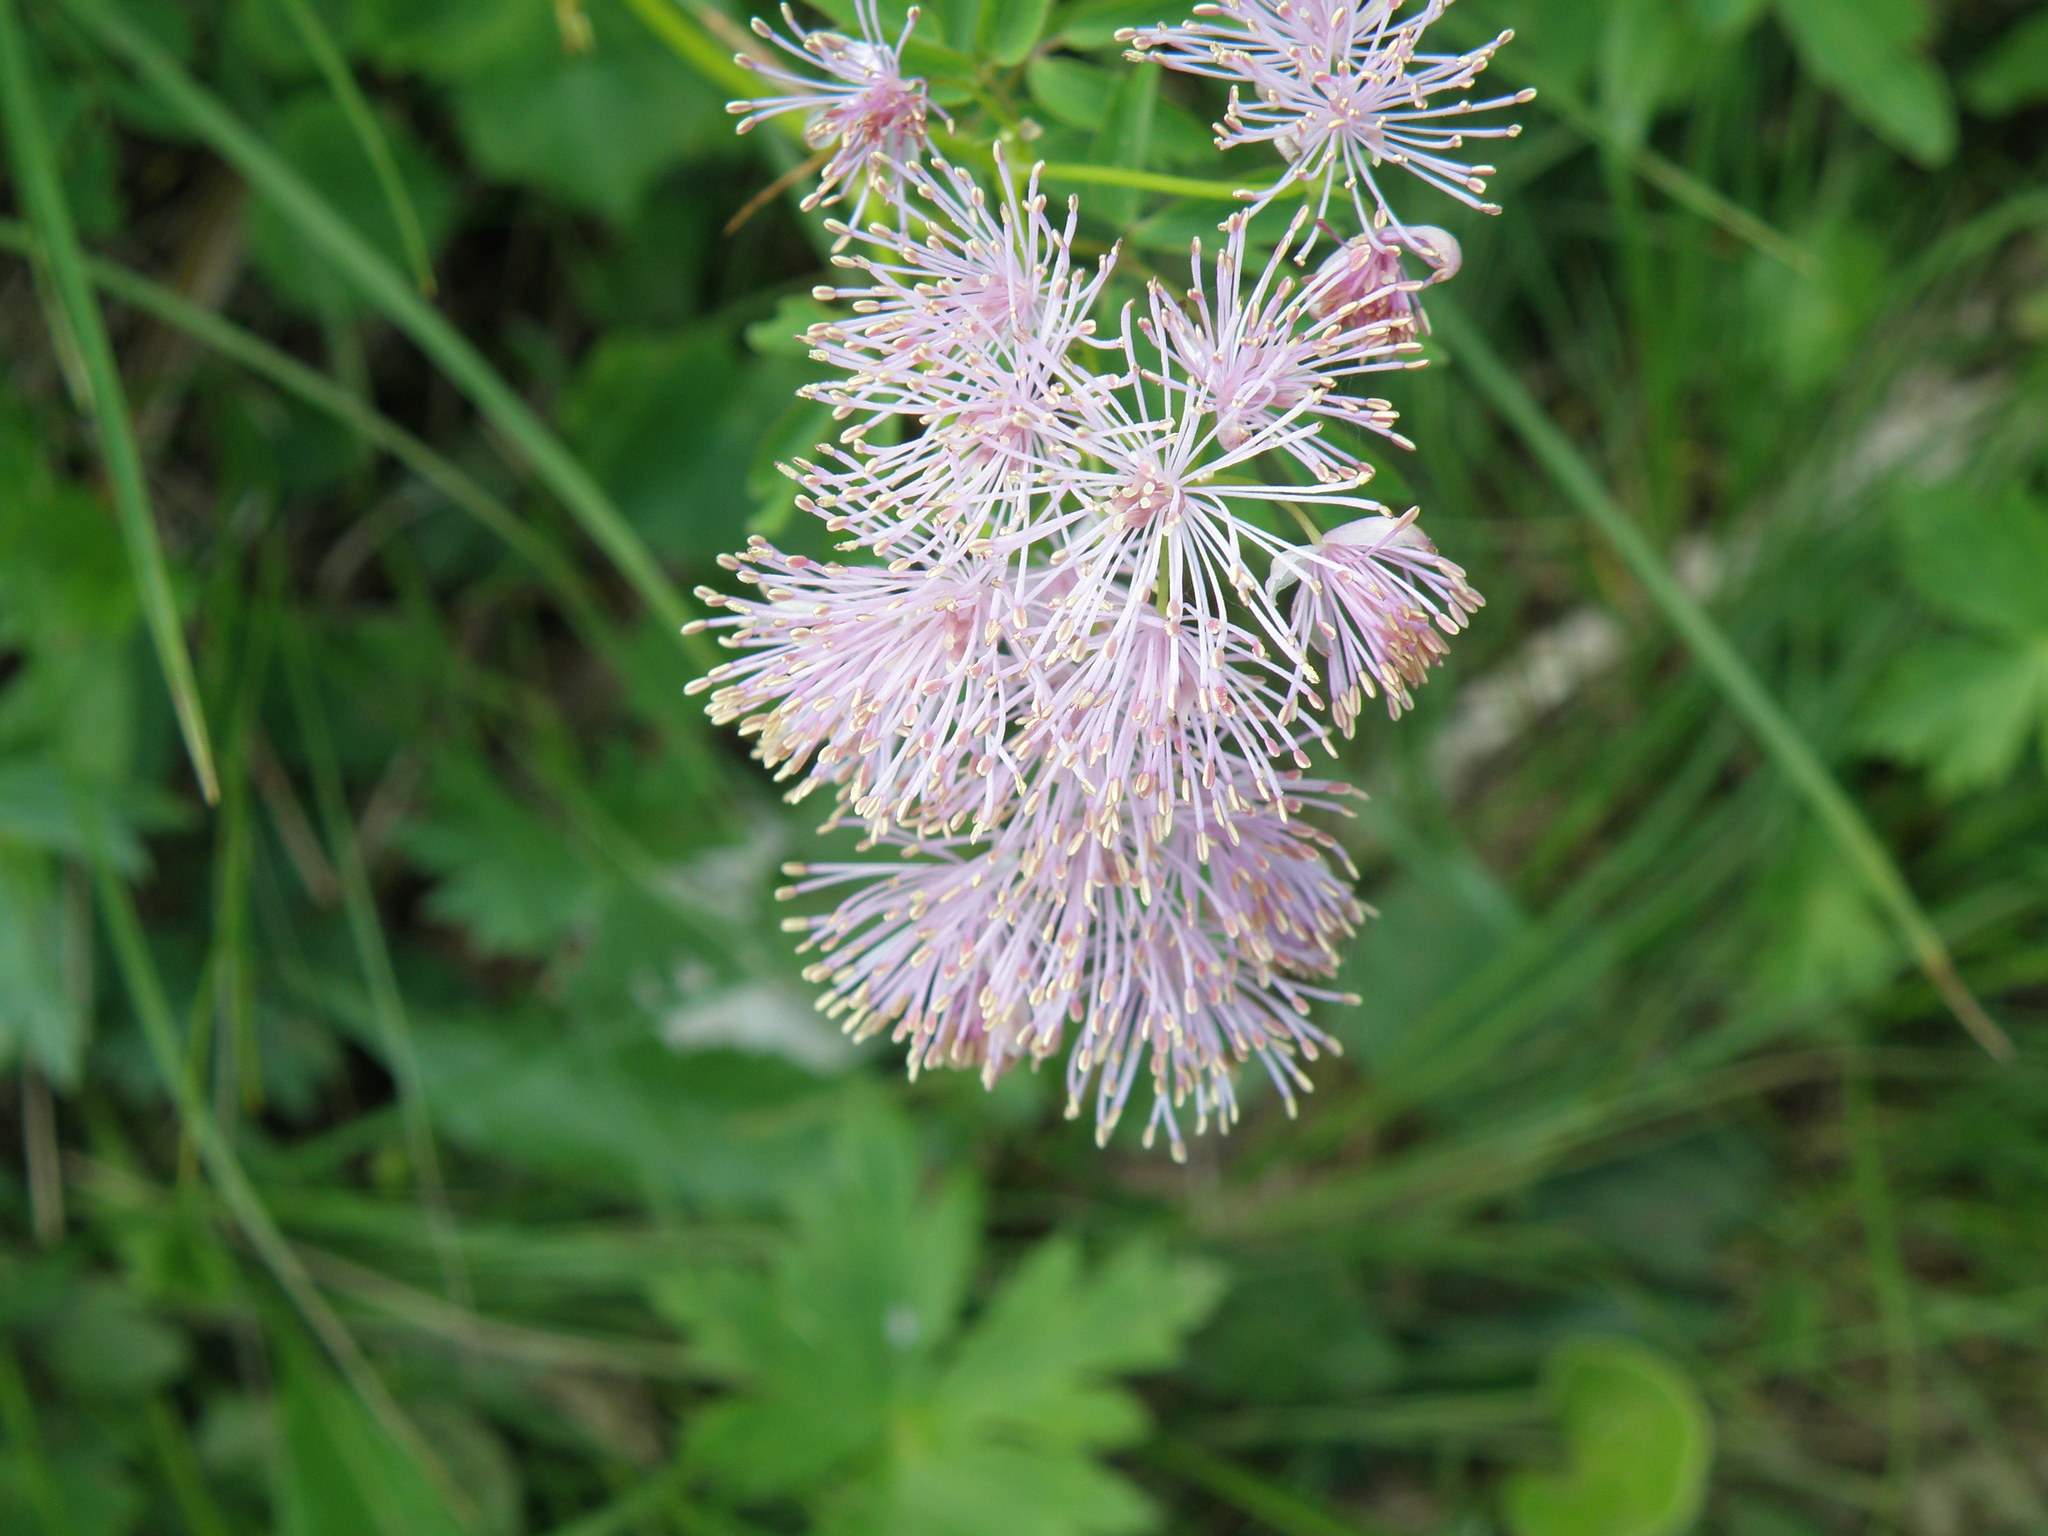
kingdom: Plantae
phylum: Tracheophyta
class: Magnoliopsida
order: Ranunculales
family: Ranunculaceae
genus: Thalictrum
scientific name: Thalictrum aquilegiifolium
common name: French meadow-rue
